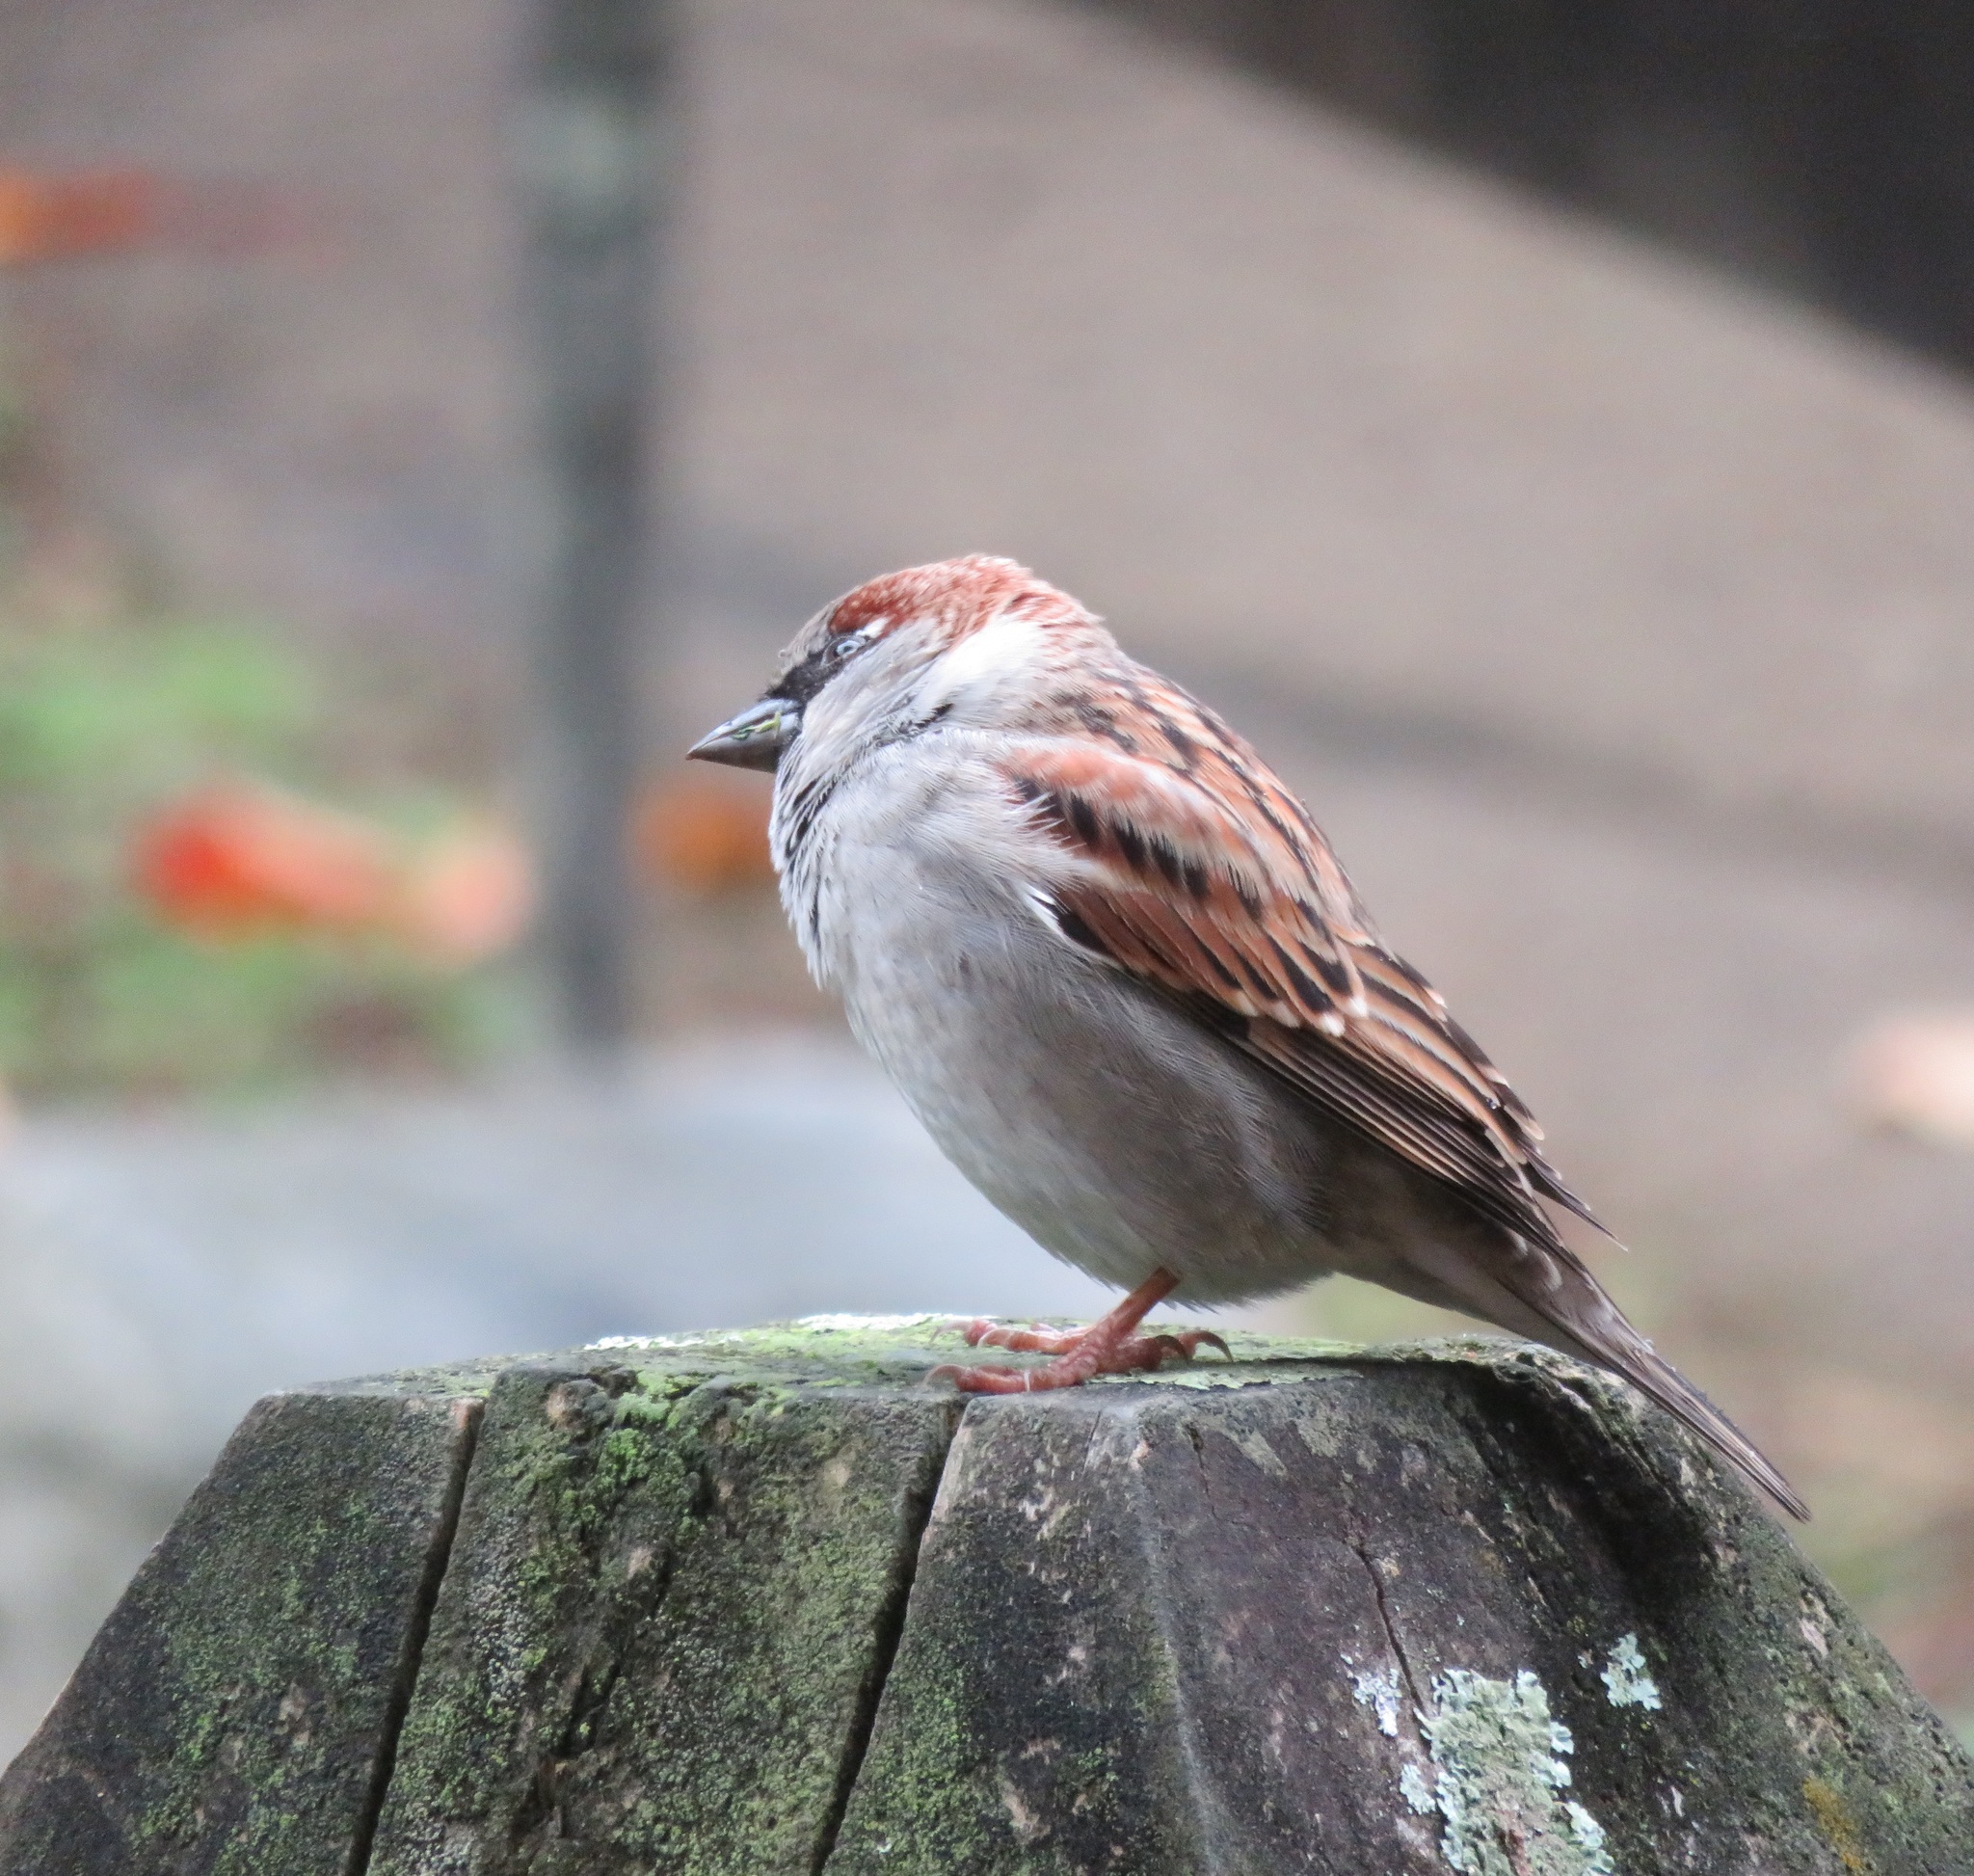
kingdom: Animalia
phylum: Chordata
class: Aves
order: Passeriformes
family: Passeridae
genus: Passer
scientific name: Passer domesticus
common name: House sparrow
